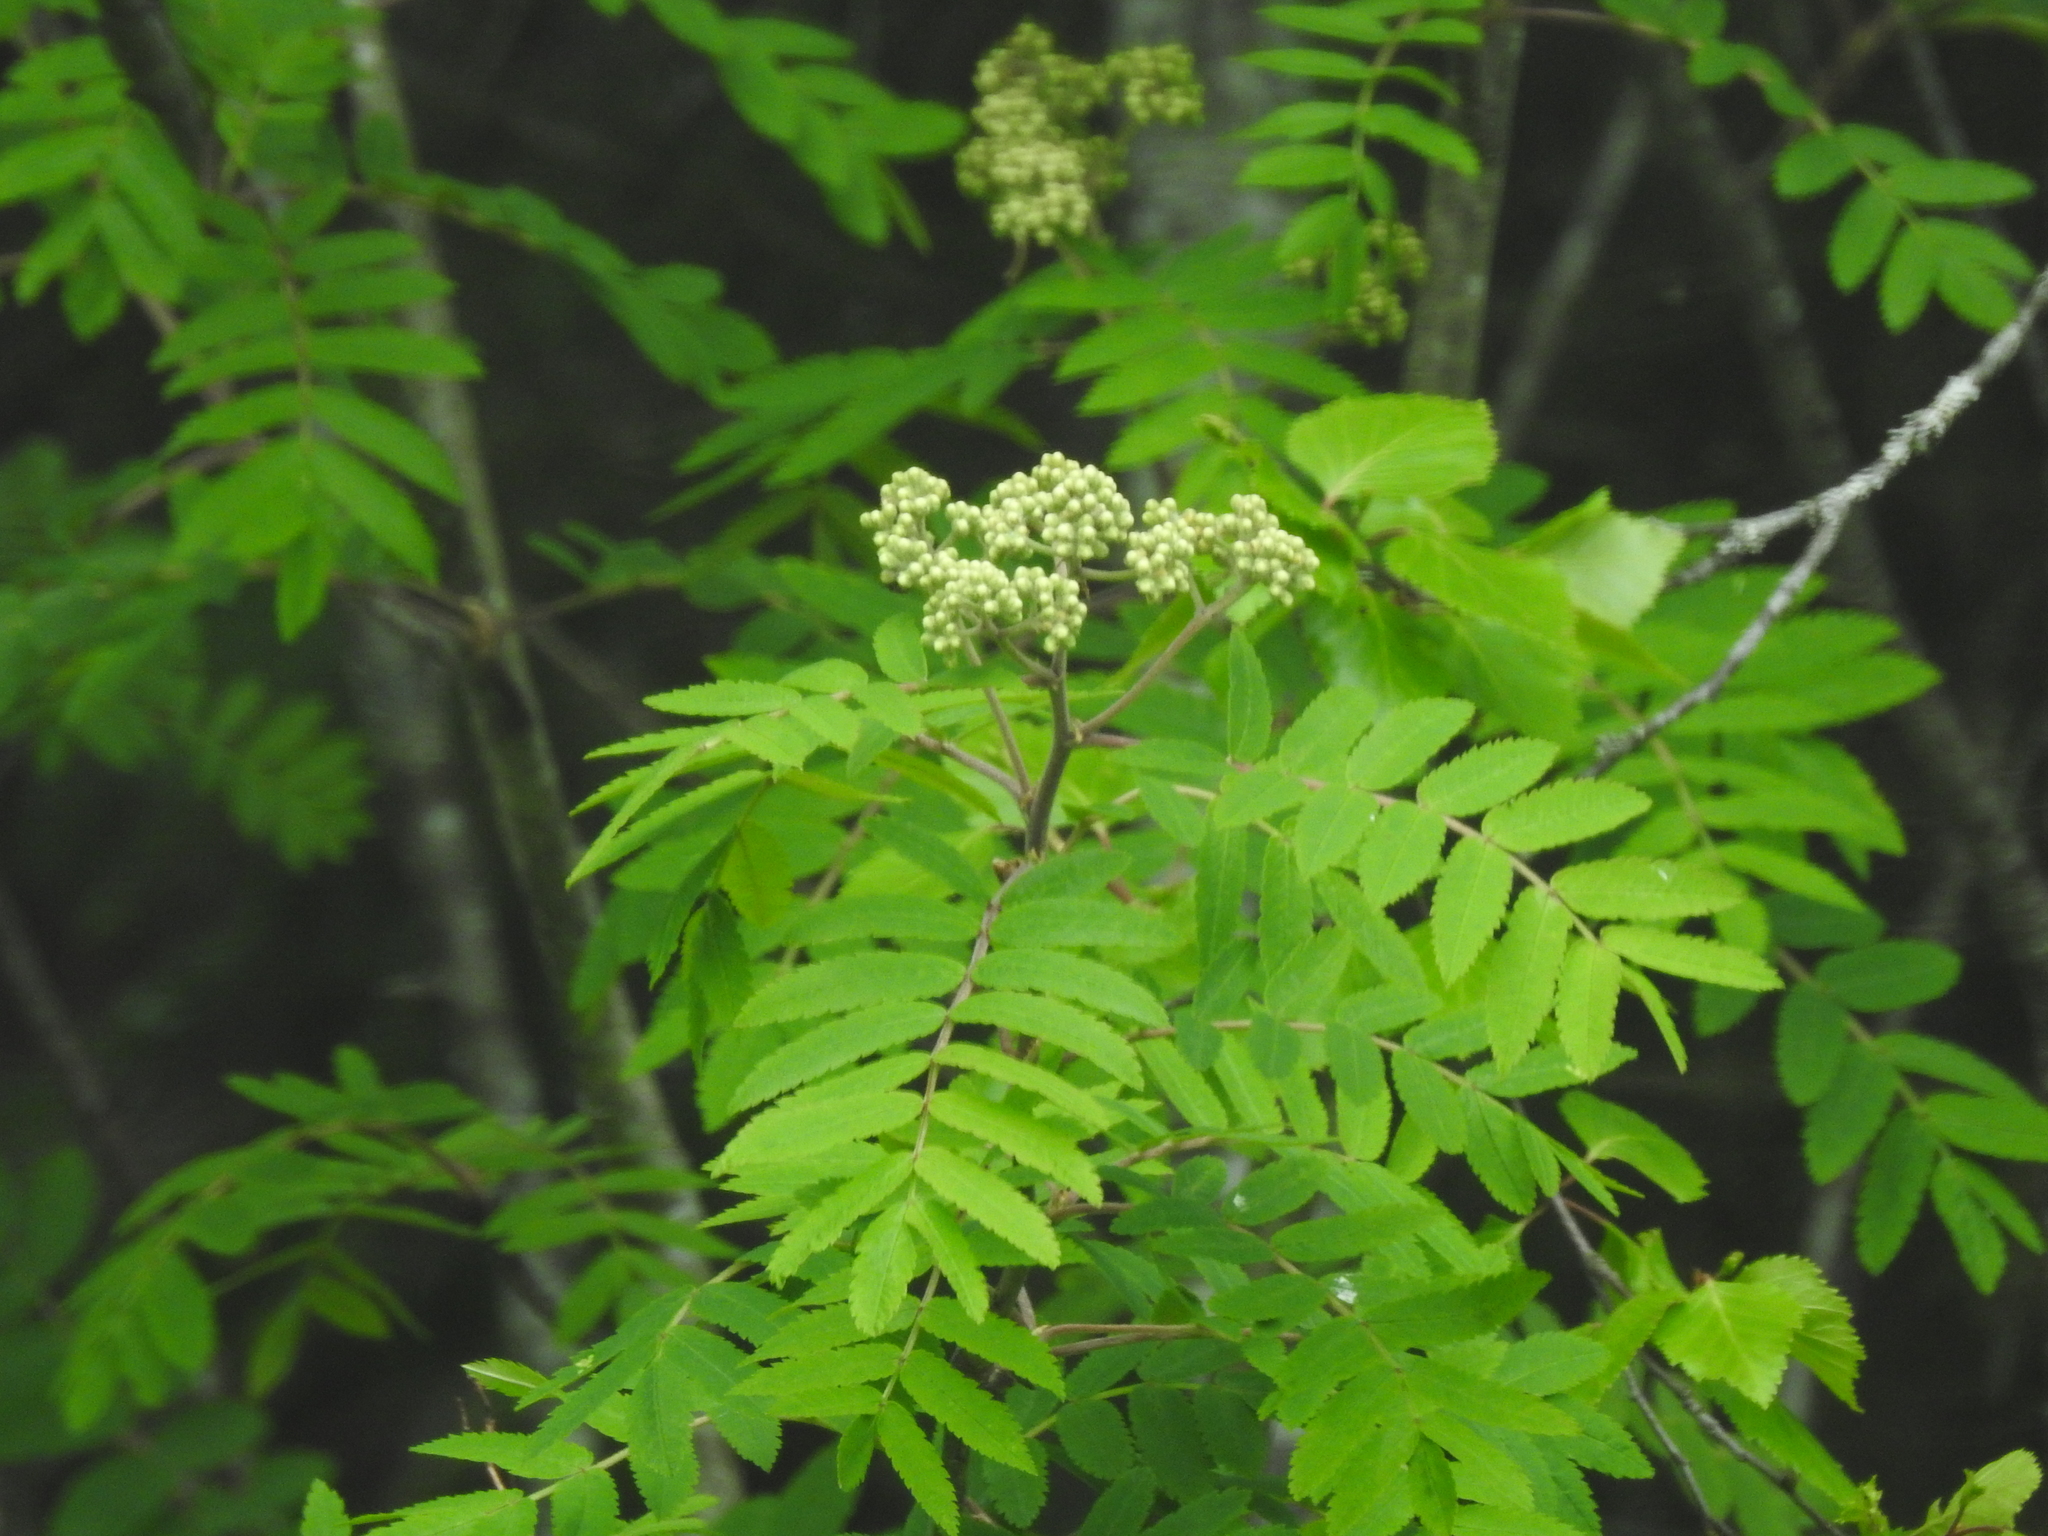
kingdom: Plantae
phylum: Tracheophyta
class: Magnoliopsida
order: Rosales
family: Rosaceae
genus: Sorbus
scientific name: Sorbus aucuparia
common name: Rowan
